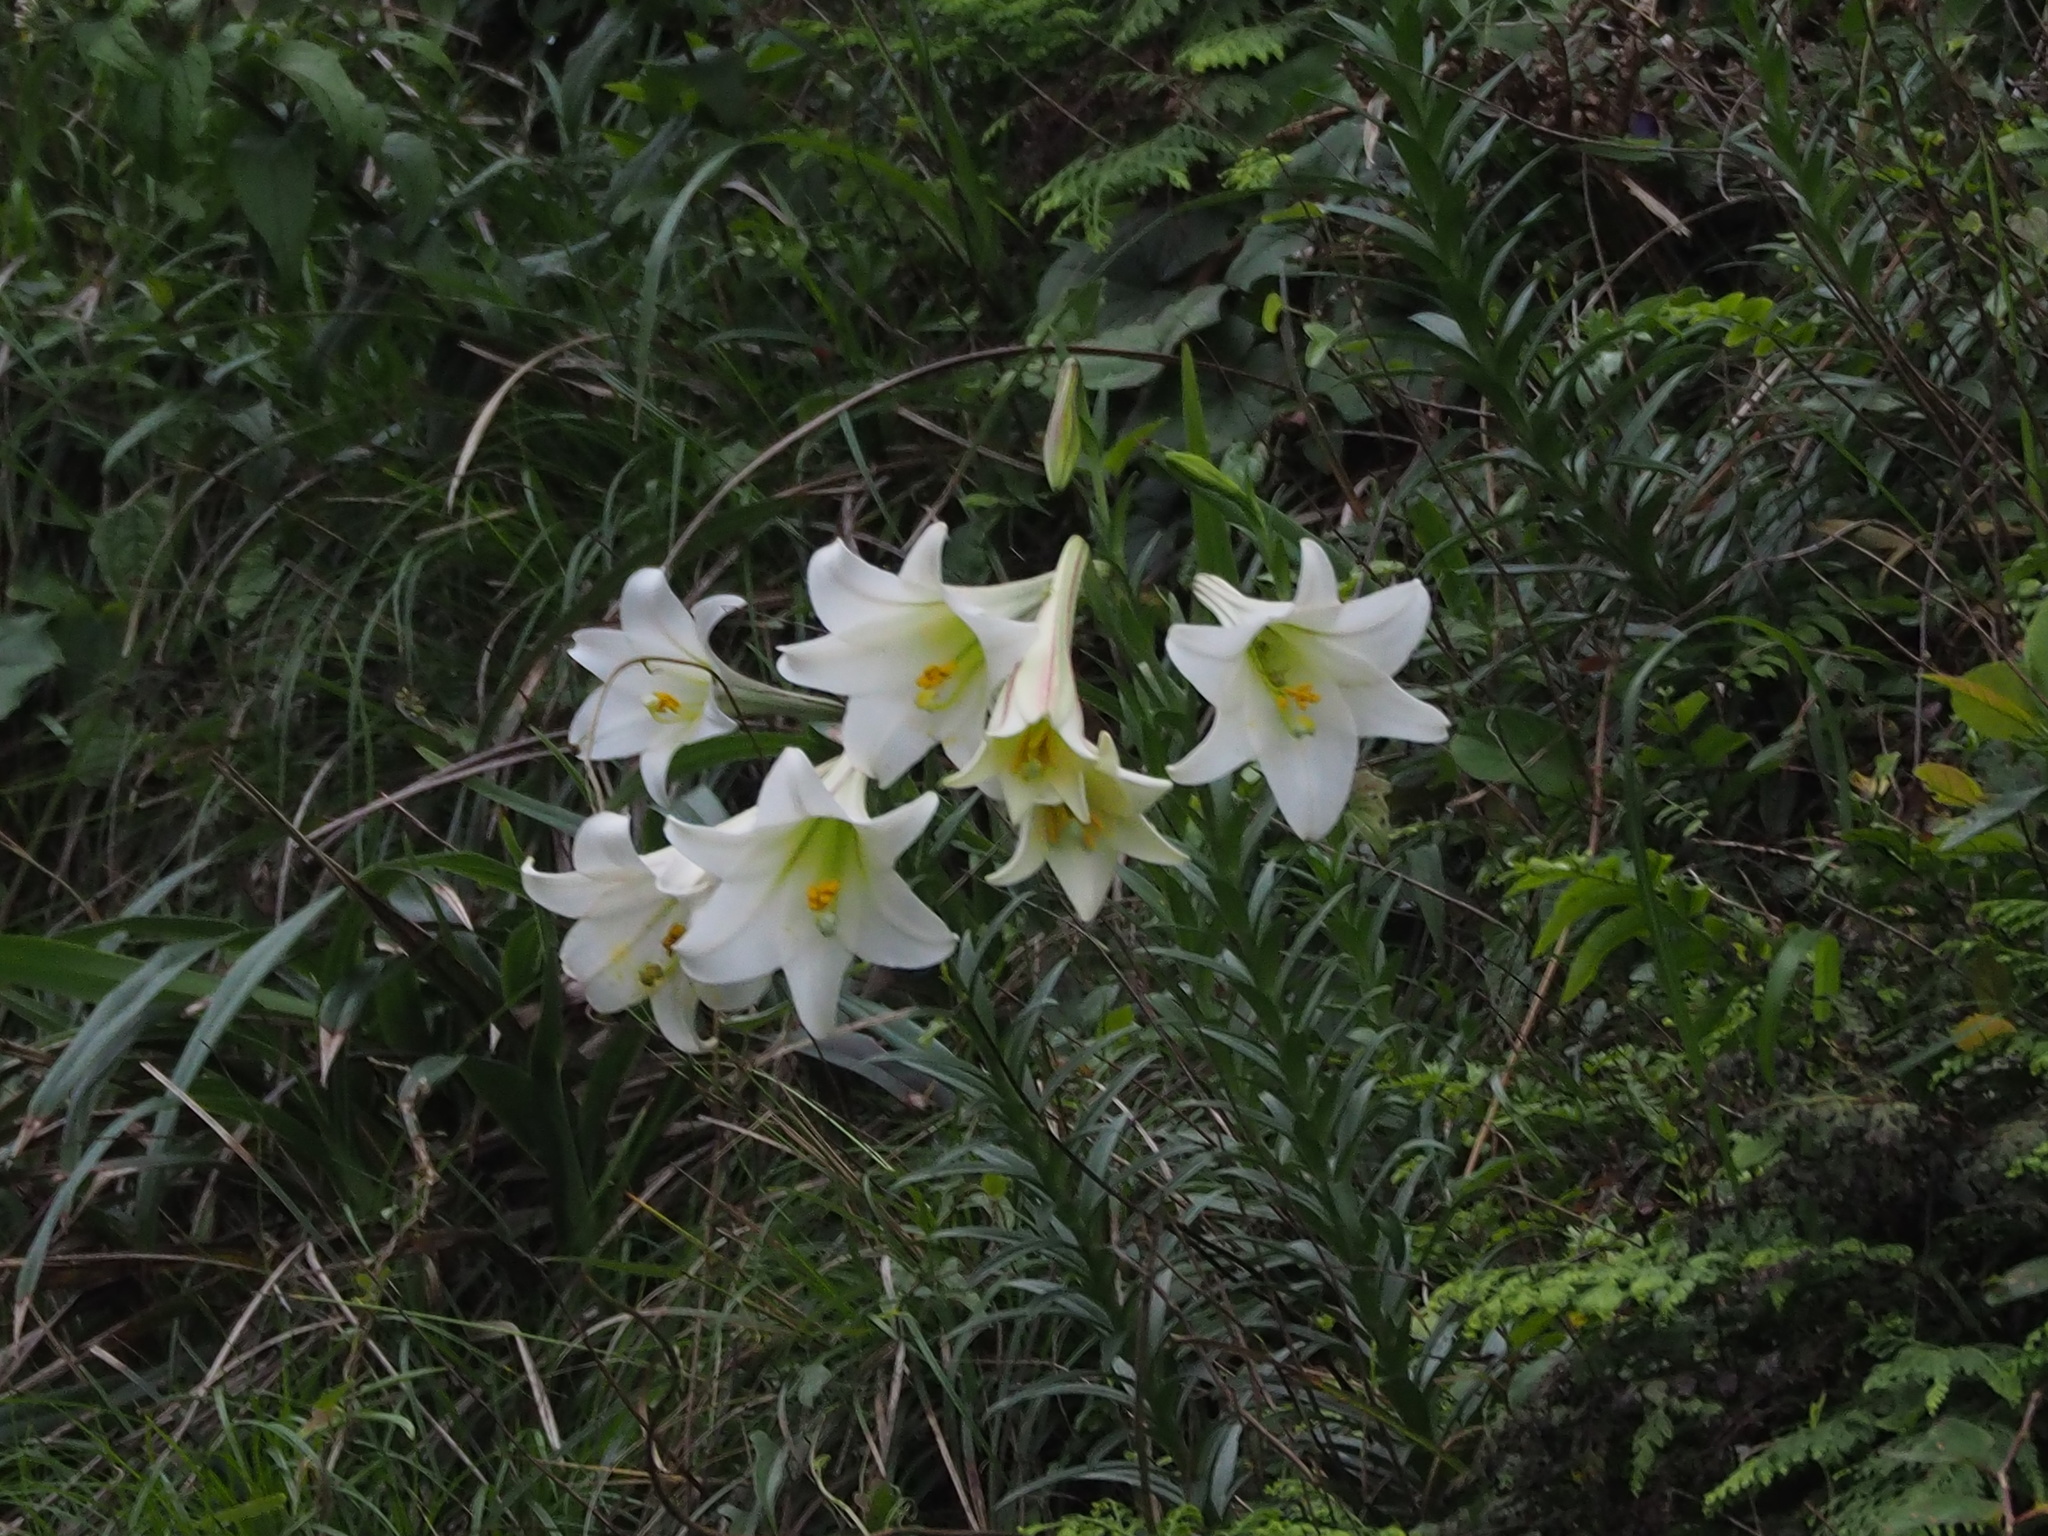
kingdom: Plantae
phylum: Tracheophyta
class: Liliopsida
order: Liliales
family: Liliaceae
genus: Lilium
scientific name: Lilium longiflorum
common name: Easter lily
